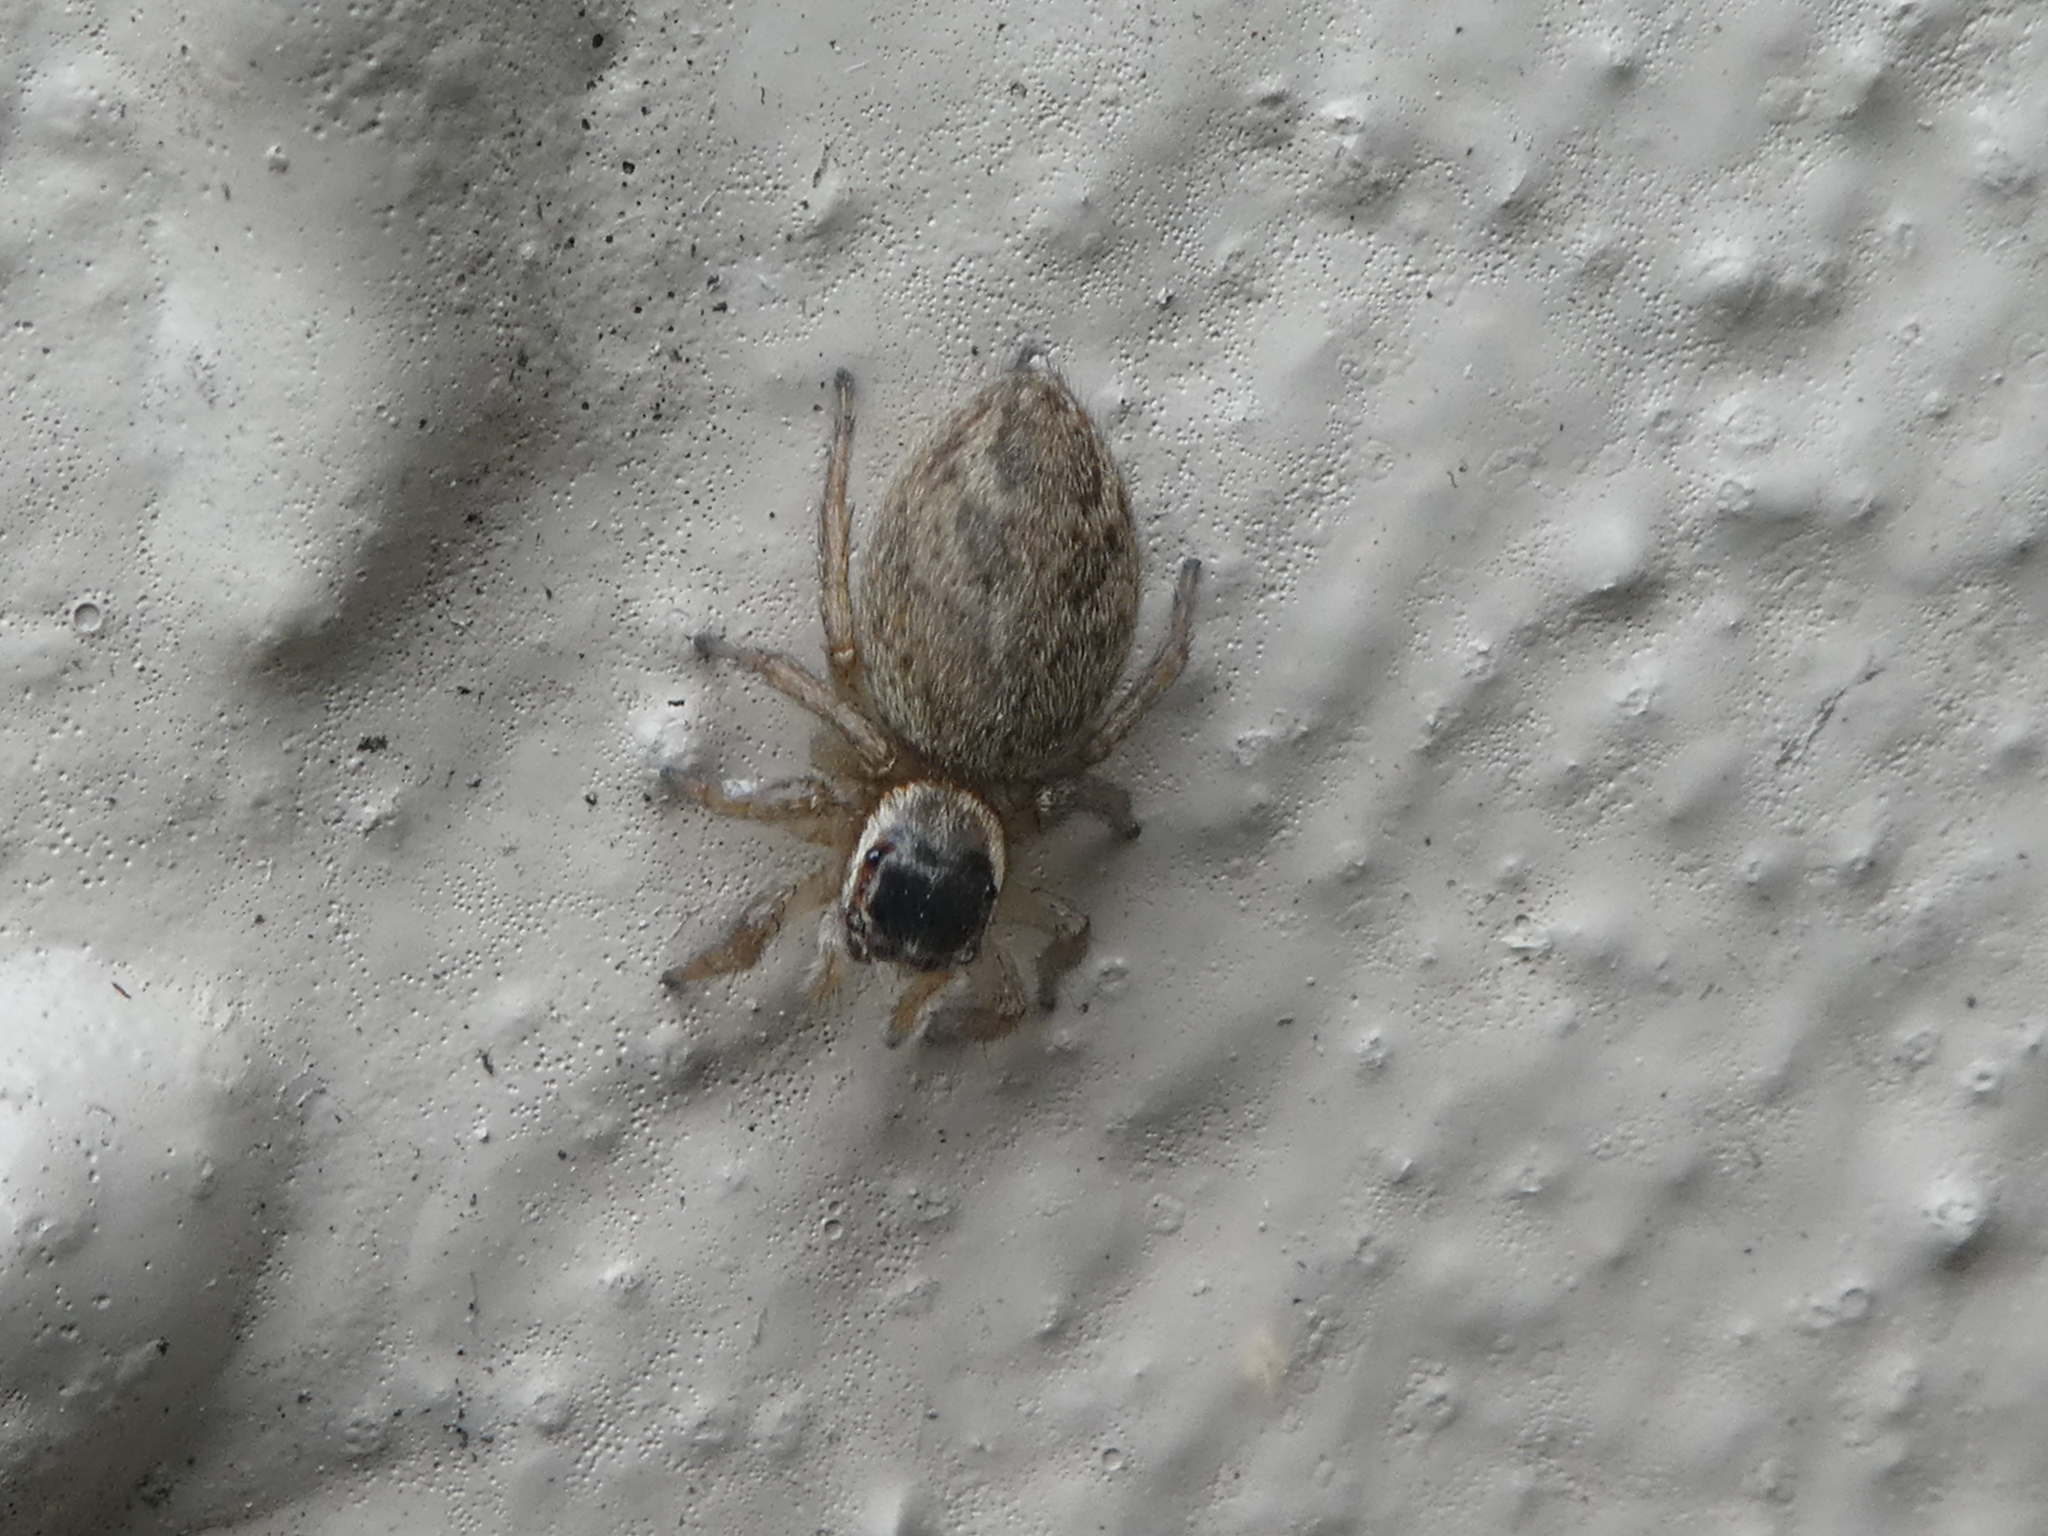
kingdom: Animalia
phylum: Arthropoda
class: Arachnida
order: Araneae
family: Salticidae
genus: Maratus
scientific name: Maratus griseus
